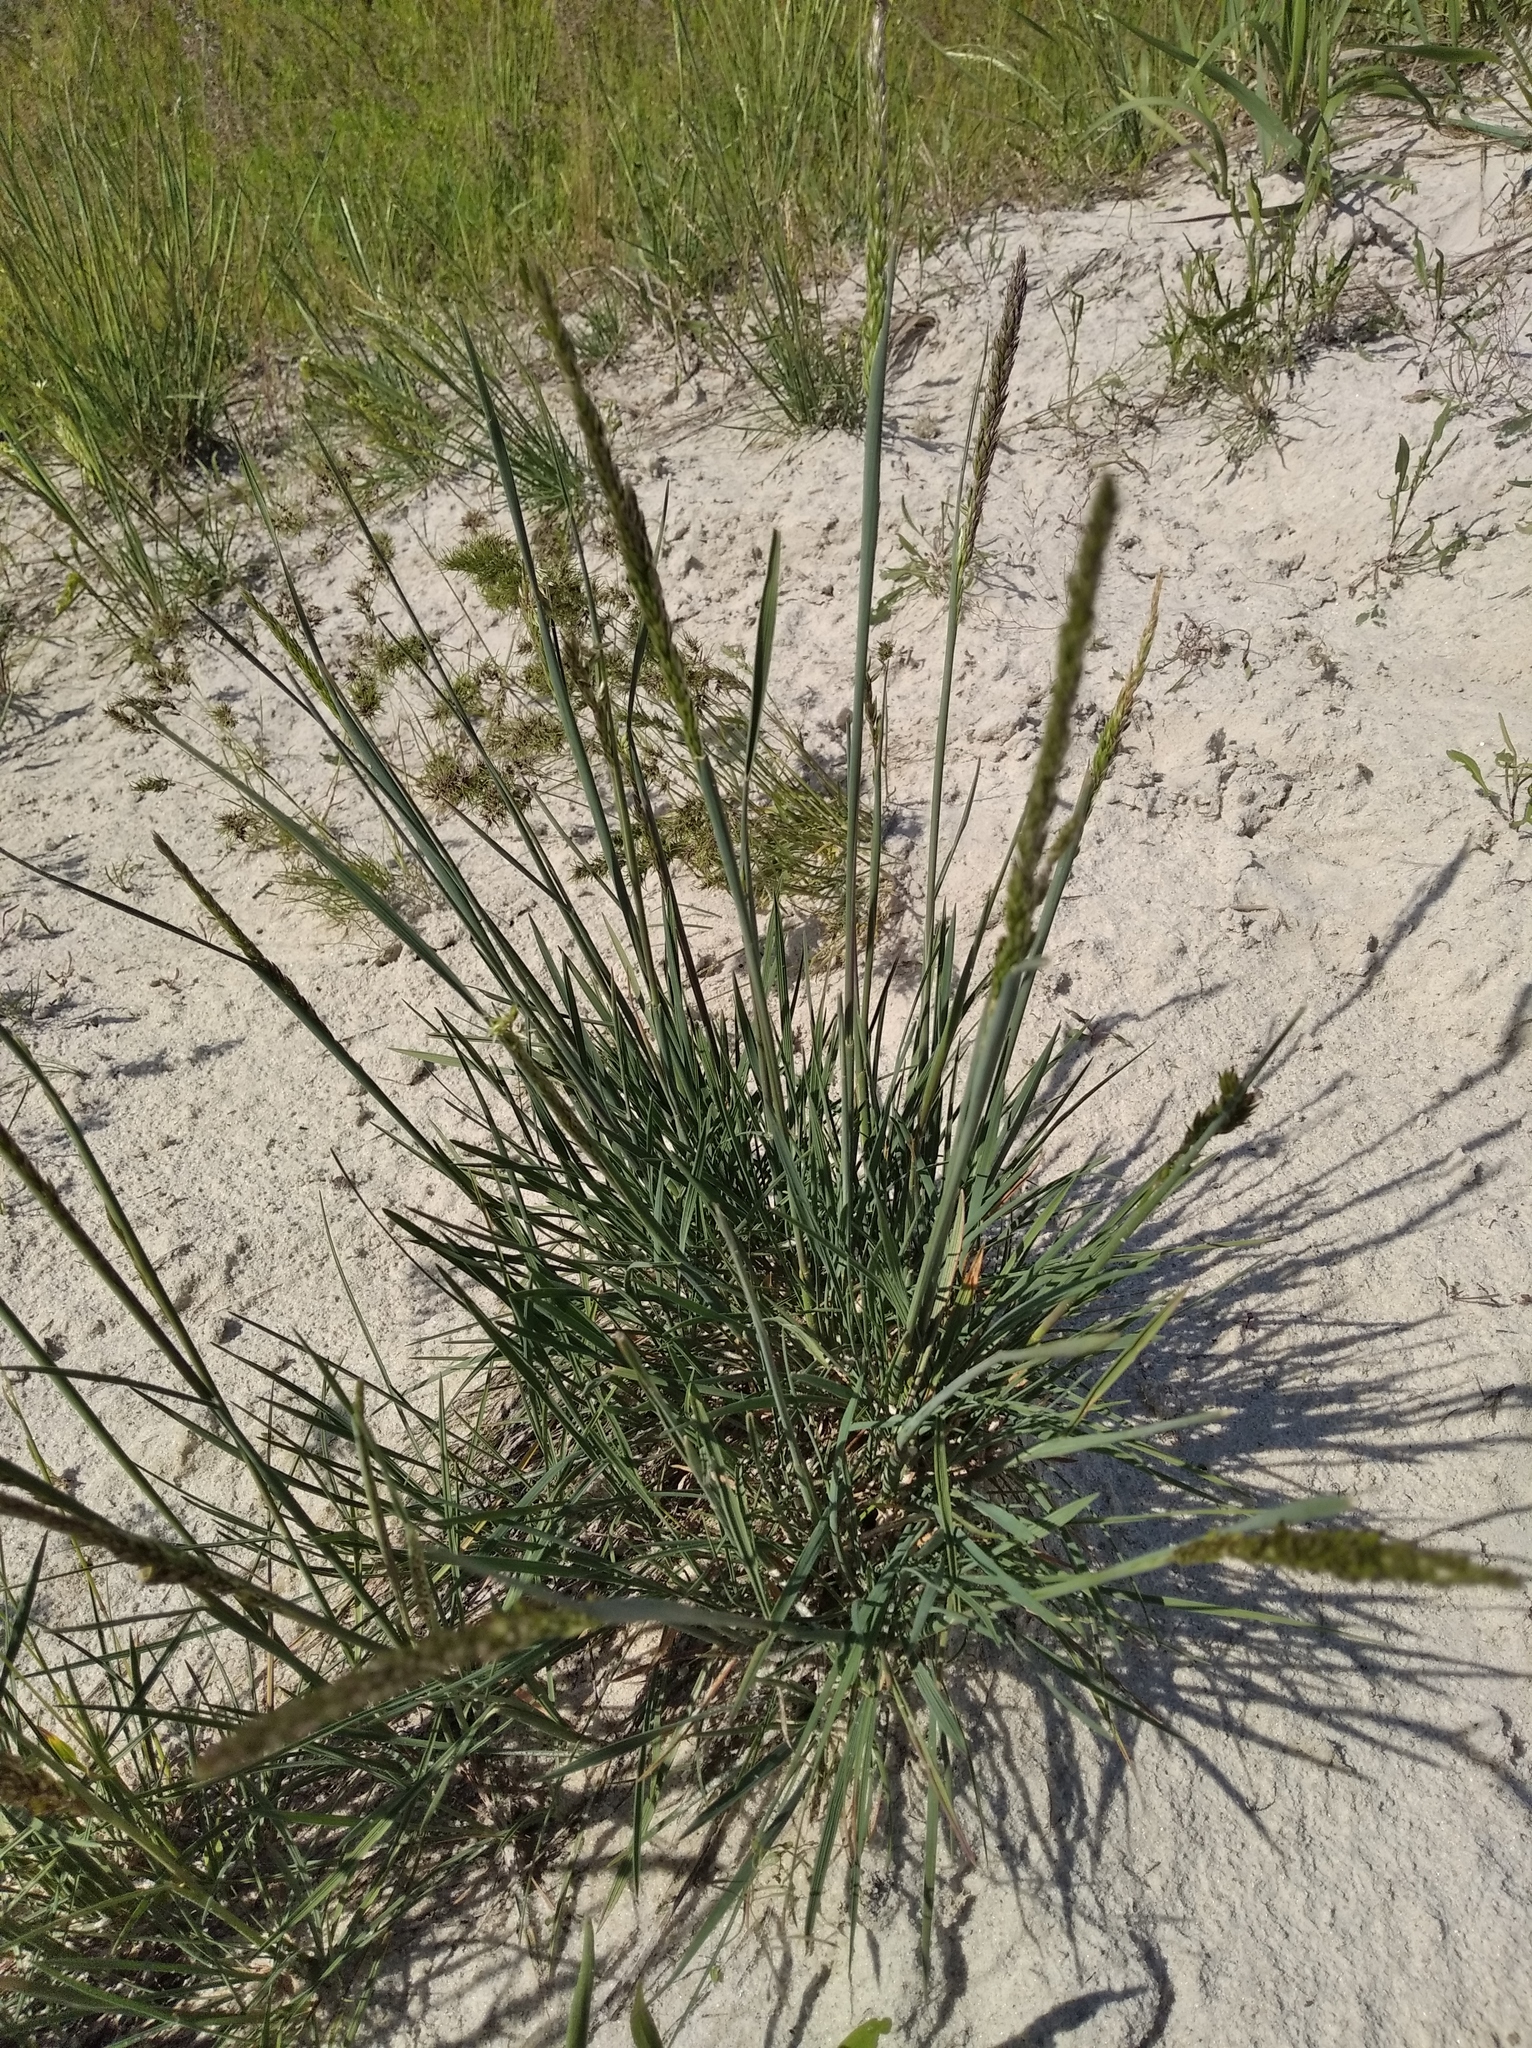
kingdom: Plantae
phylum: Tracheophyta
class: Liliopsida
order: Poales
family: Poaceae
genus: Koeleria
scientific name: Koeleria macrantha
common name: Crested hair-grass
